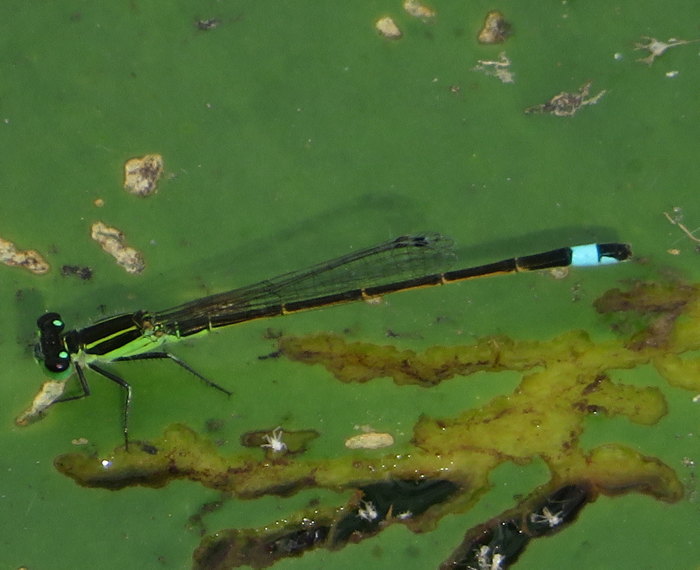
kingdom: Animalia
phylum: Arthropoda
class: Insecta
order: Odonata
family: Coenagrionidae
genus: Ischnura
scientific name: Ischnura ramburii
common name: Rambur's forktail
